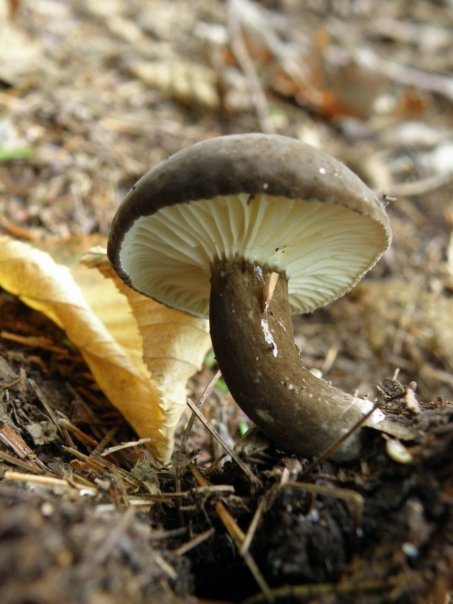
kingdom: Fungi
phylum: Basidiomycota
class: Agaricomycetes
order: Russulales
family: Russulaceae
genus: Lactarius
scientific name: Lactarius lignyotus
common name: Velvet milkcap
